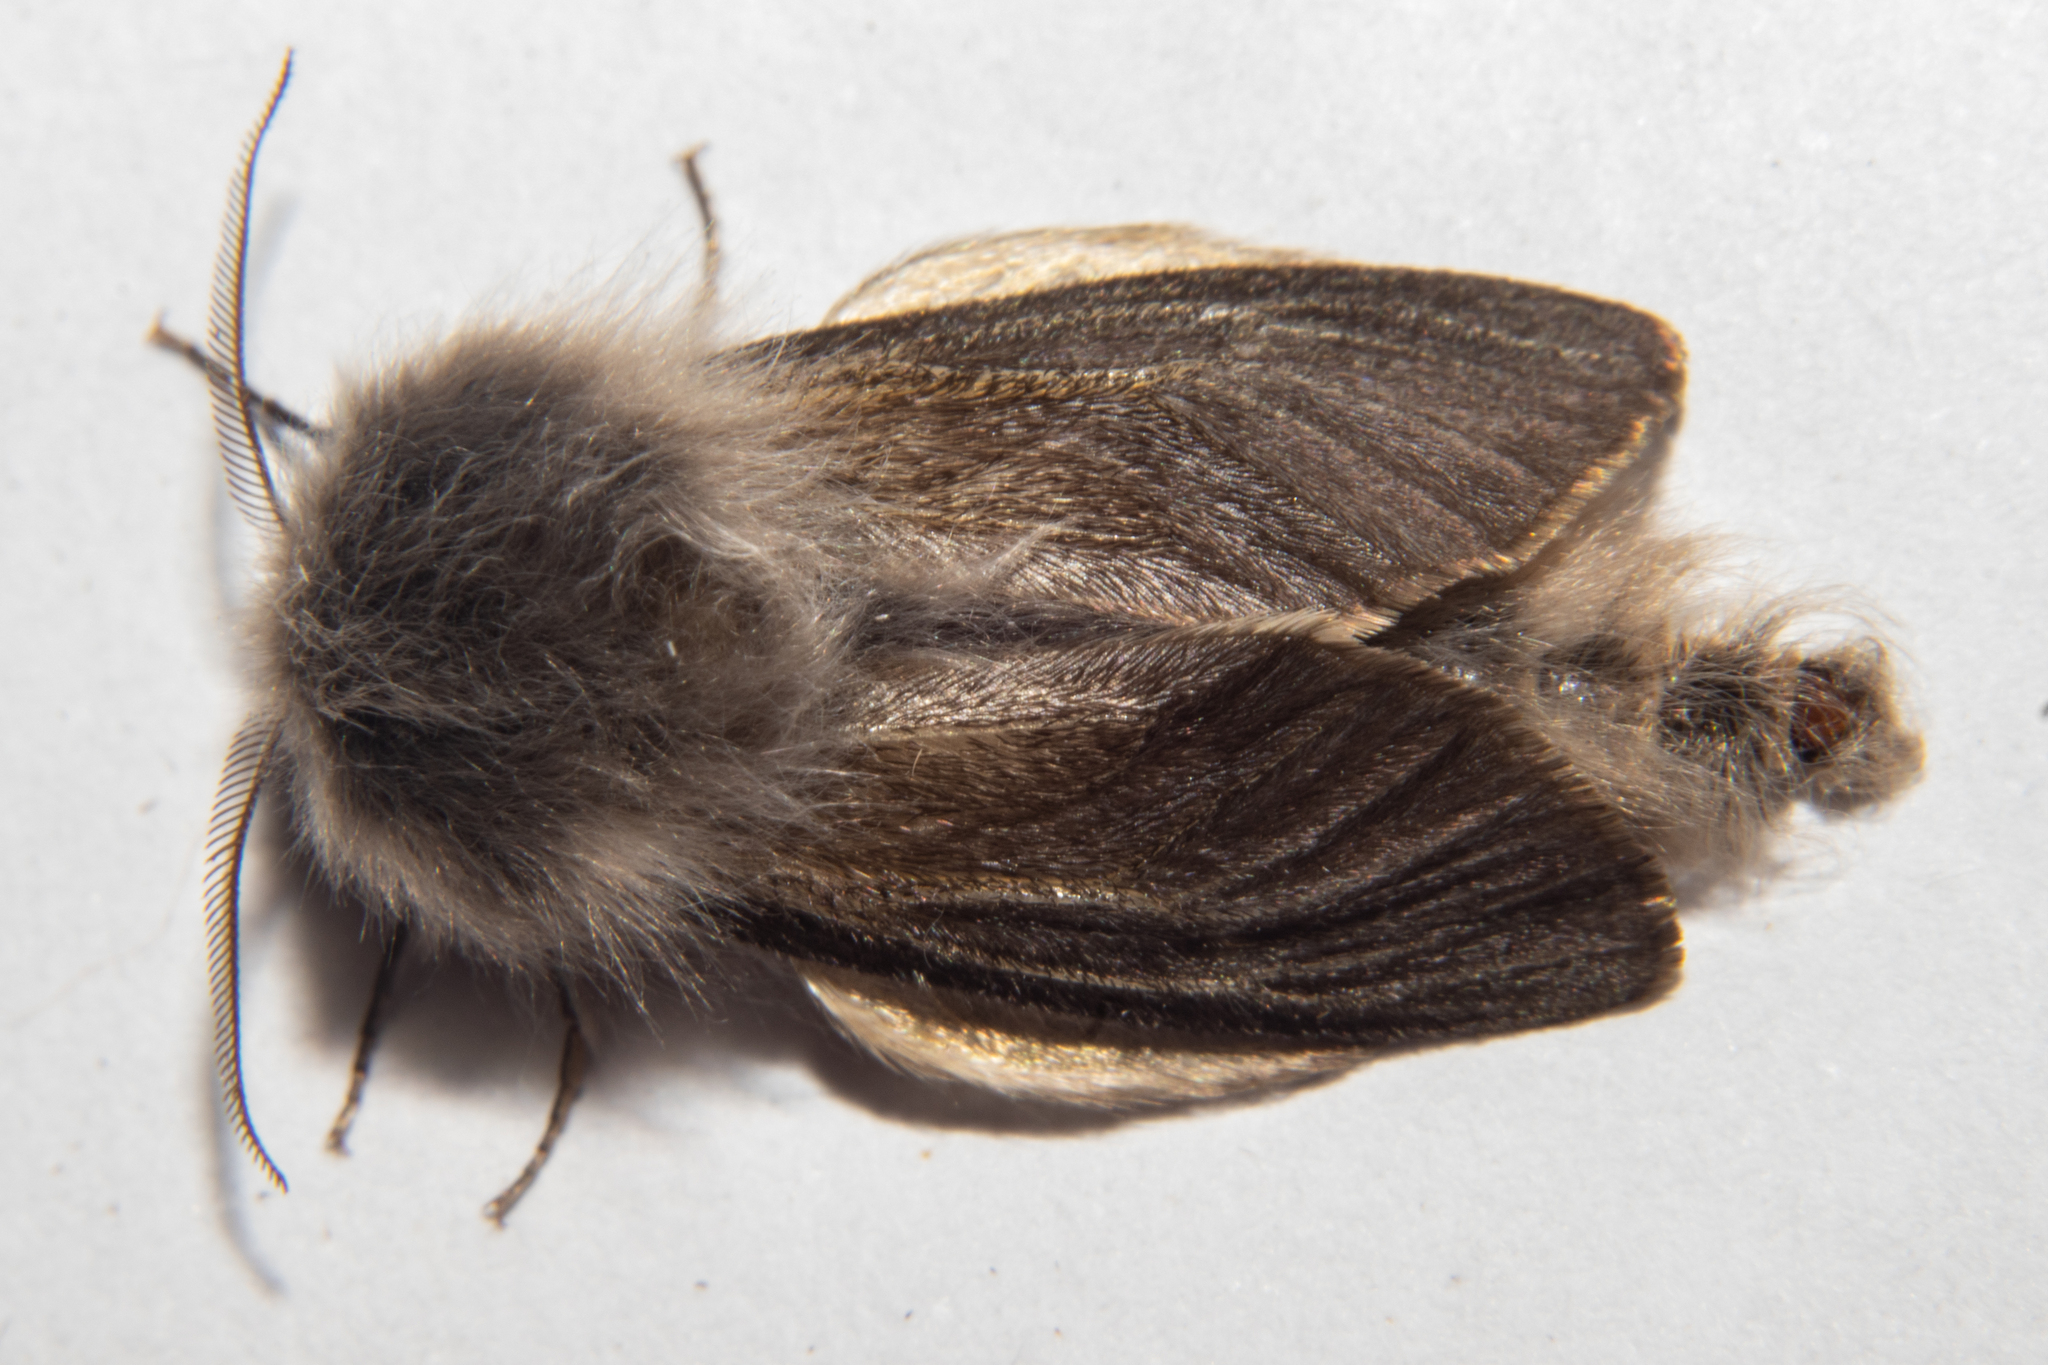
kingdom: Animalia
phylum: Arthropoda
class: Insecta
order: Lepidoptera
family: Psychidae
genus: Orophora
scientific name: Orophora unicolor
